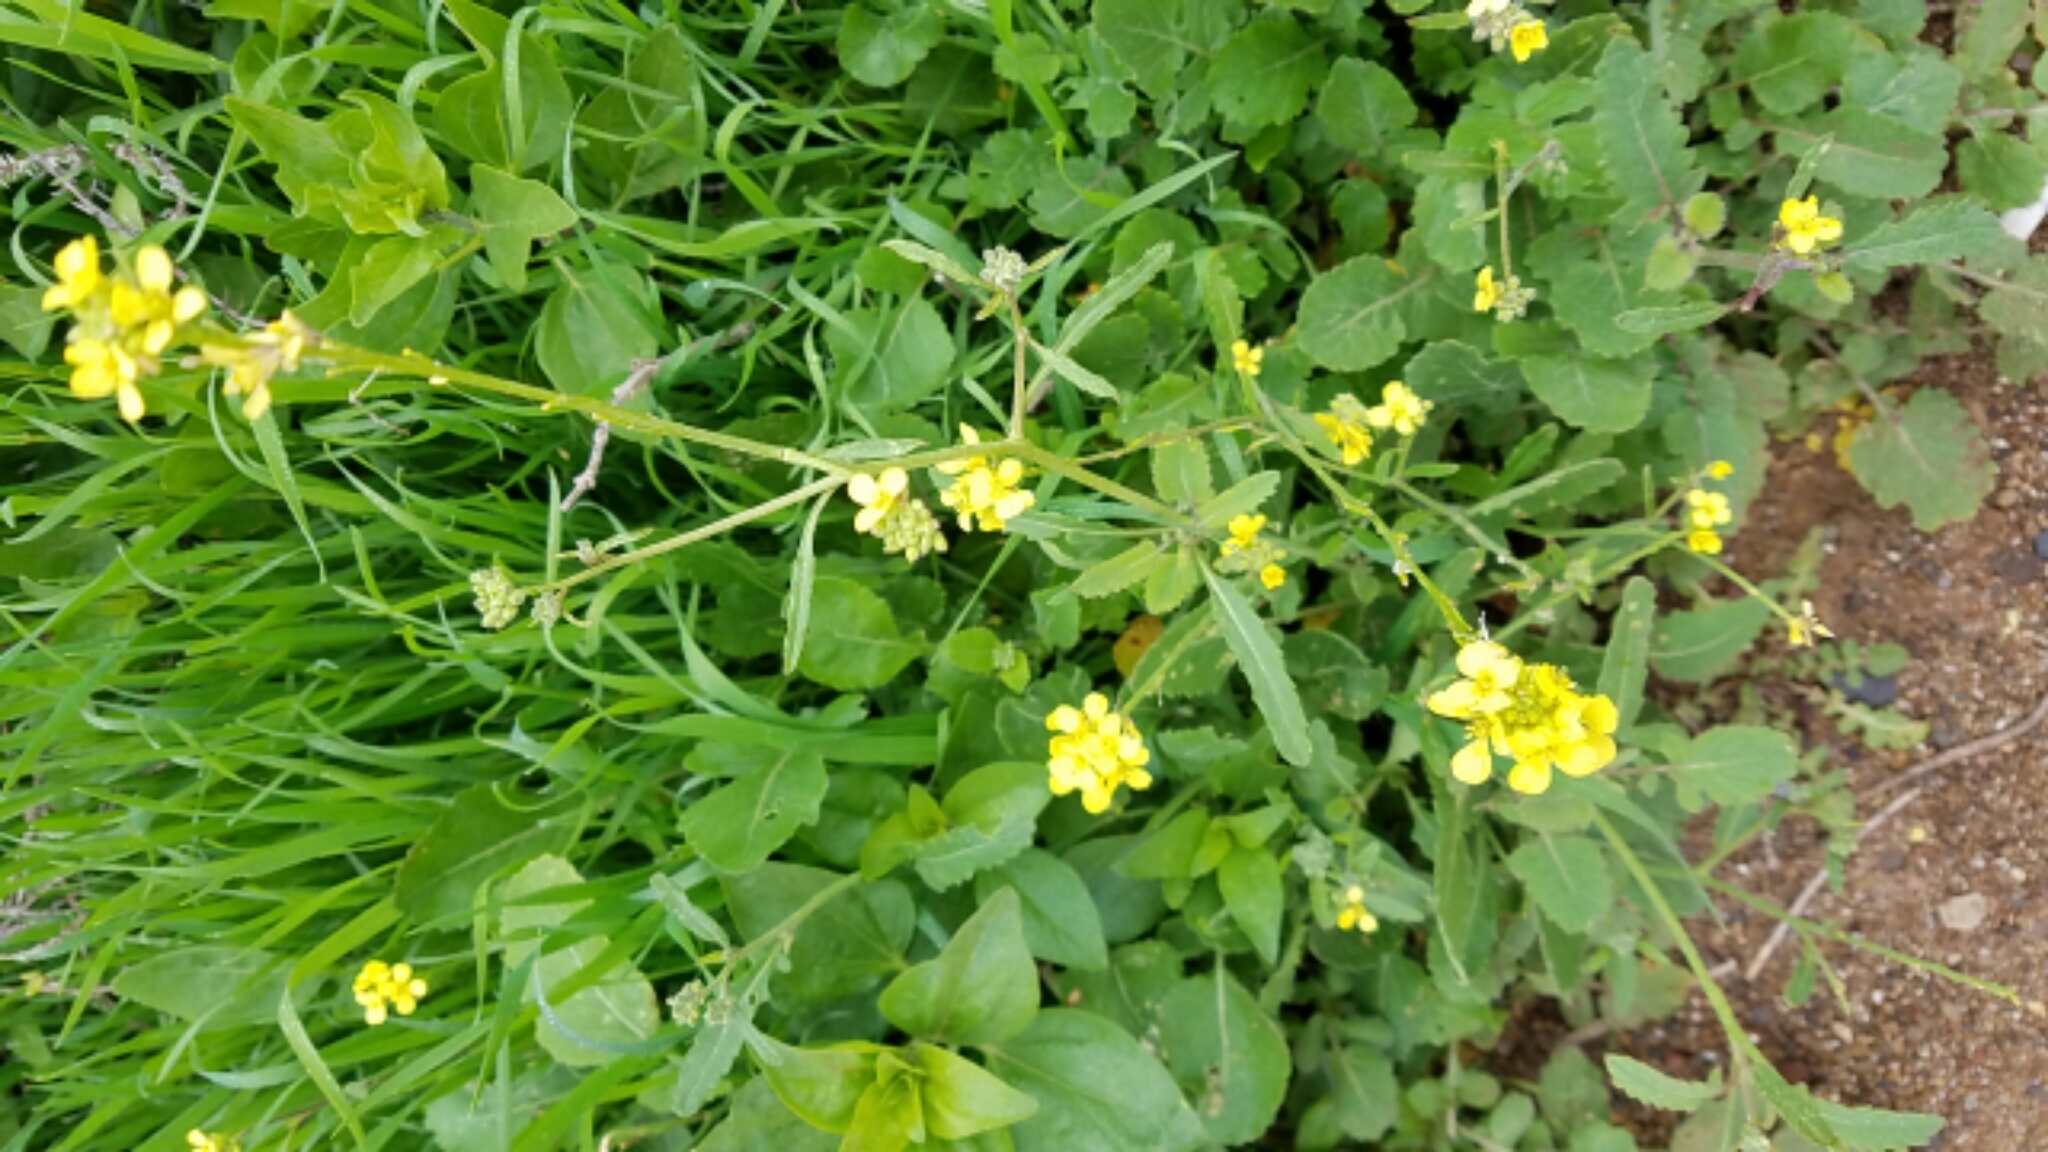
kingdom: Plantae
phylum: Tracheophyta
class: Magnoliopsida
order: Brassicales
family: Brassicaceae
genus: Hirschfeldia
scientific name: Hirschfeldia incana
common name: Hoary mustard
